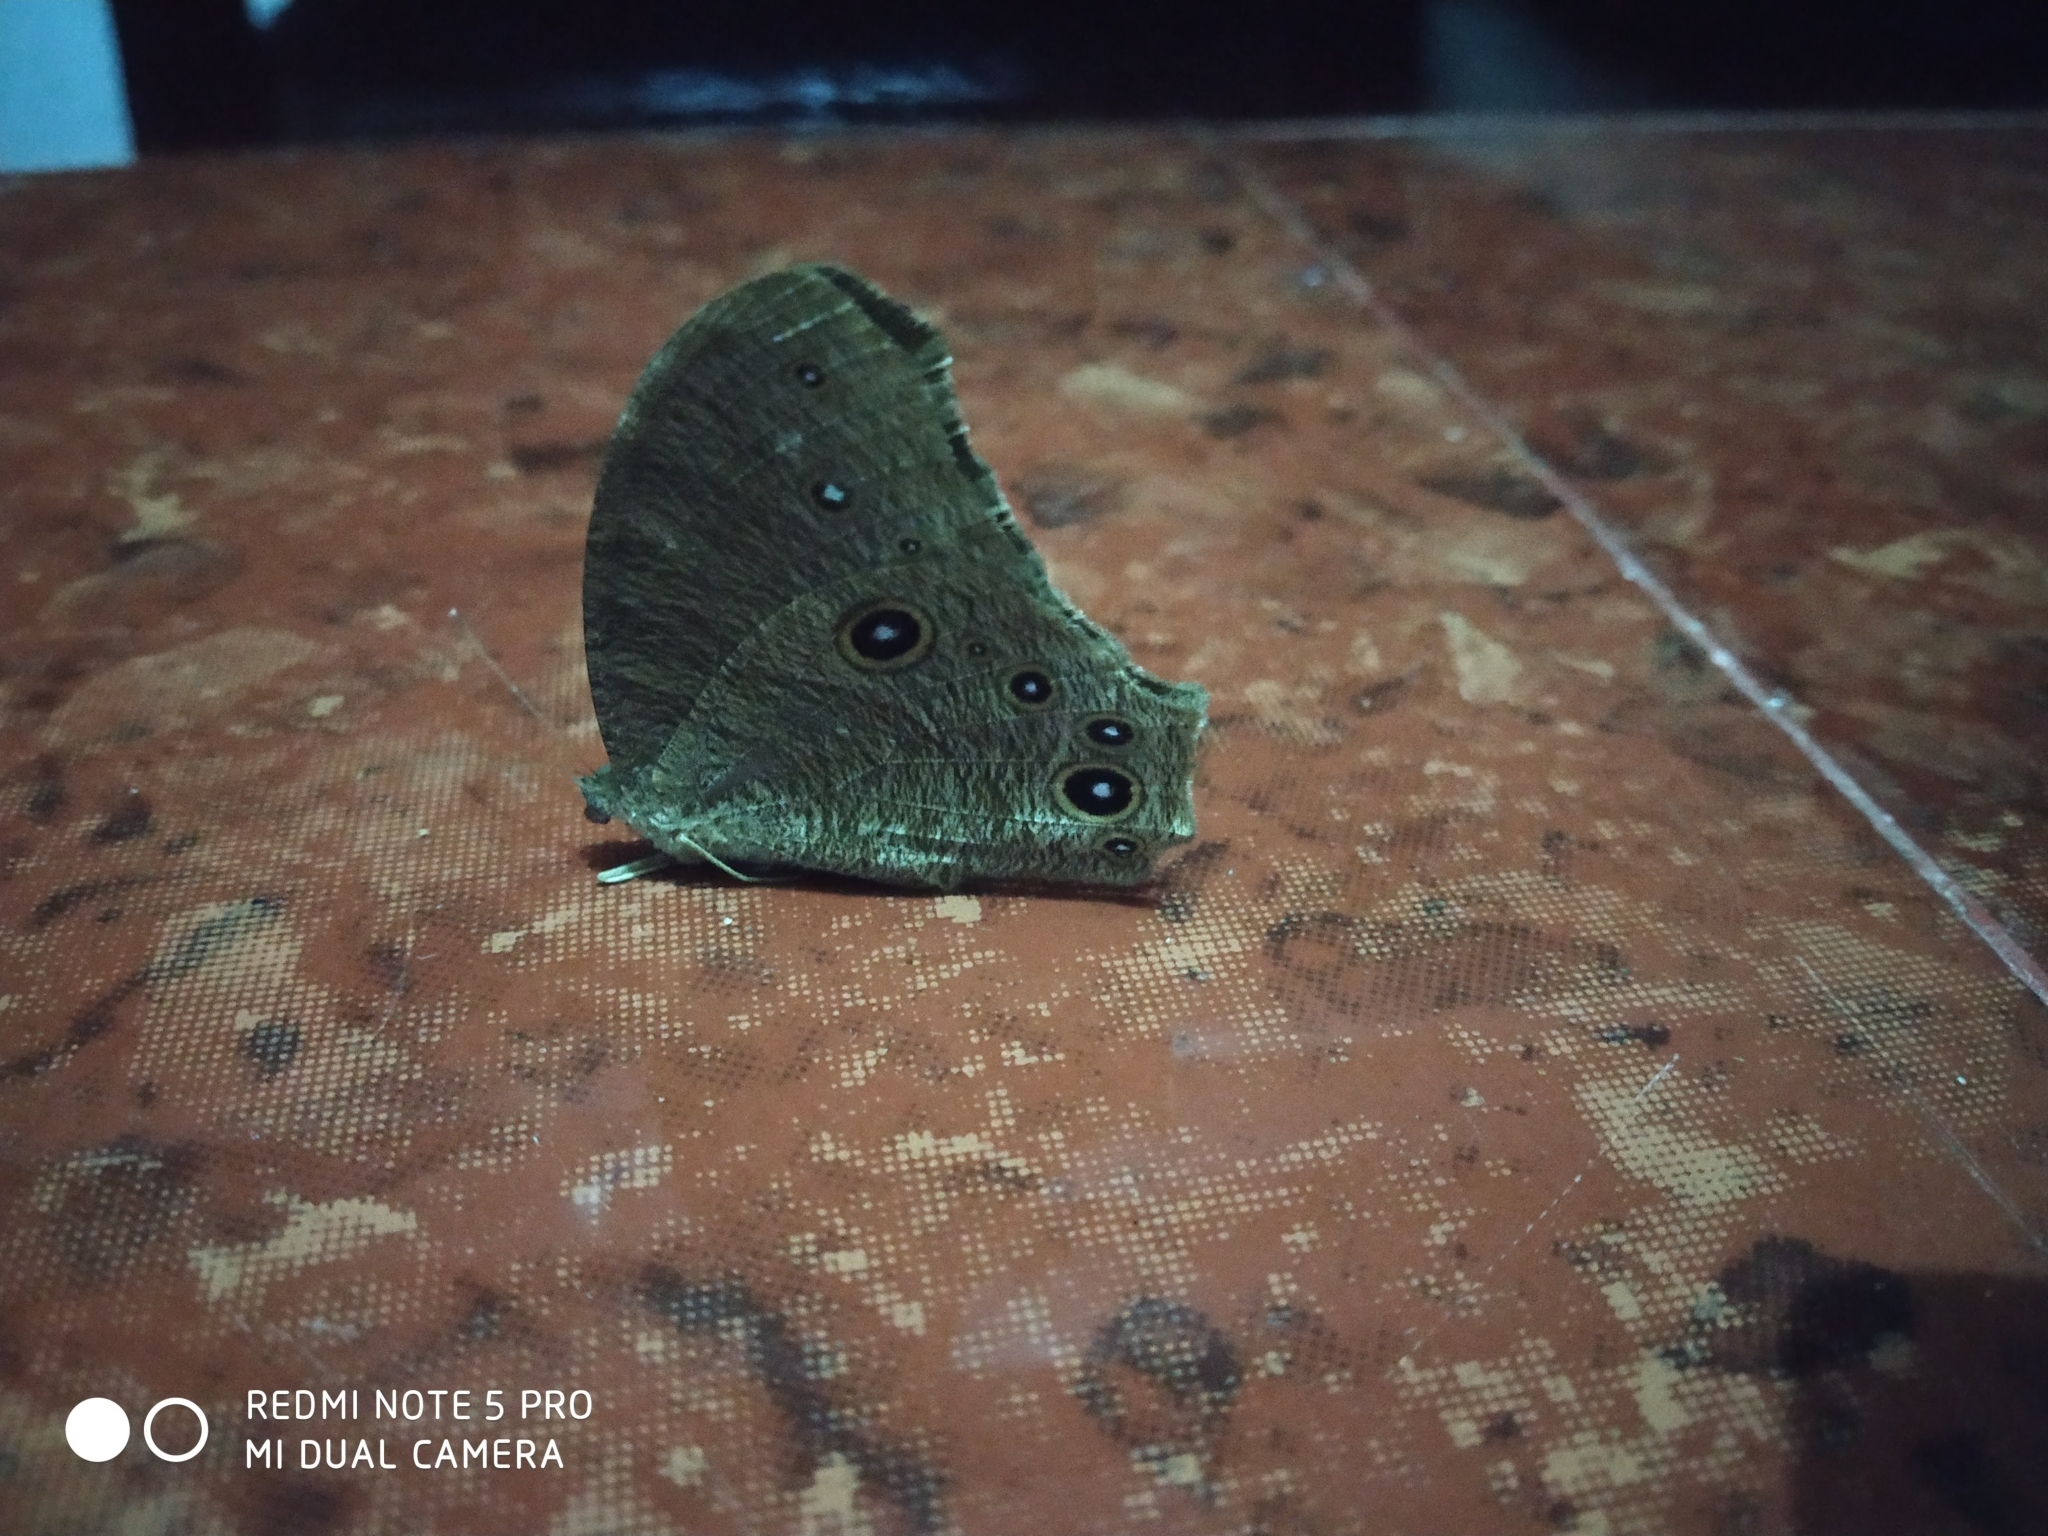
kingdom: Animalia
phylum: Arthropoda
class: Insecta
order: Lepidoptera
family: Nymphalidae
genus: Melanitis
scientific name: Melanitis leda
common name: Twilight brown
